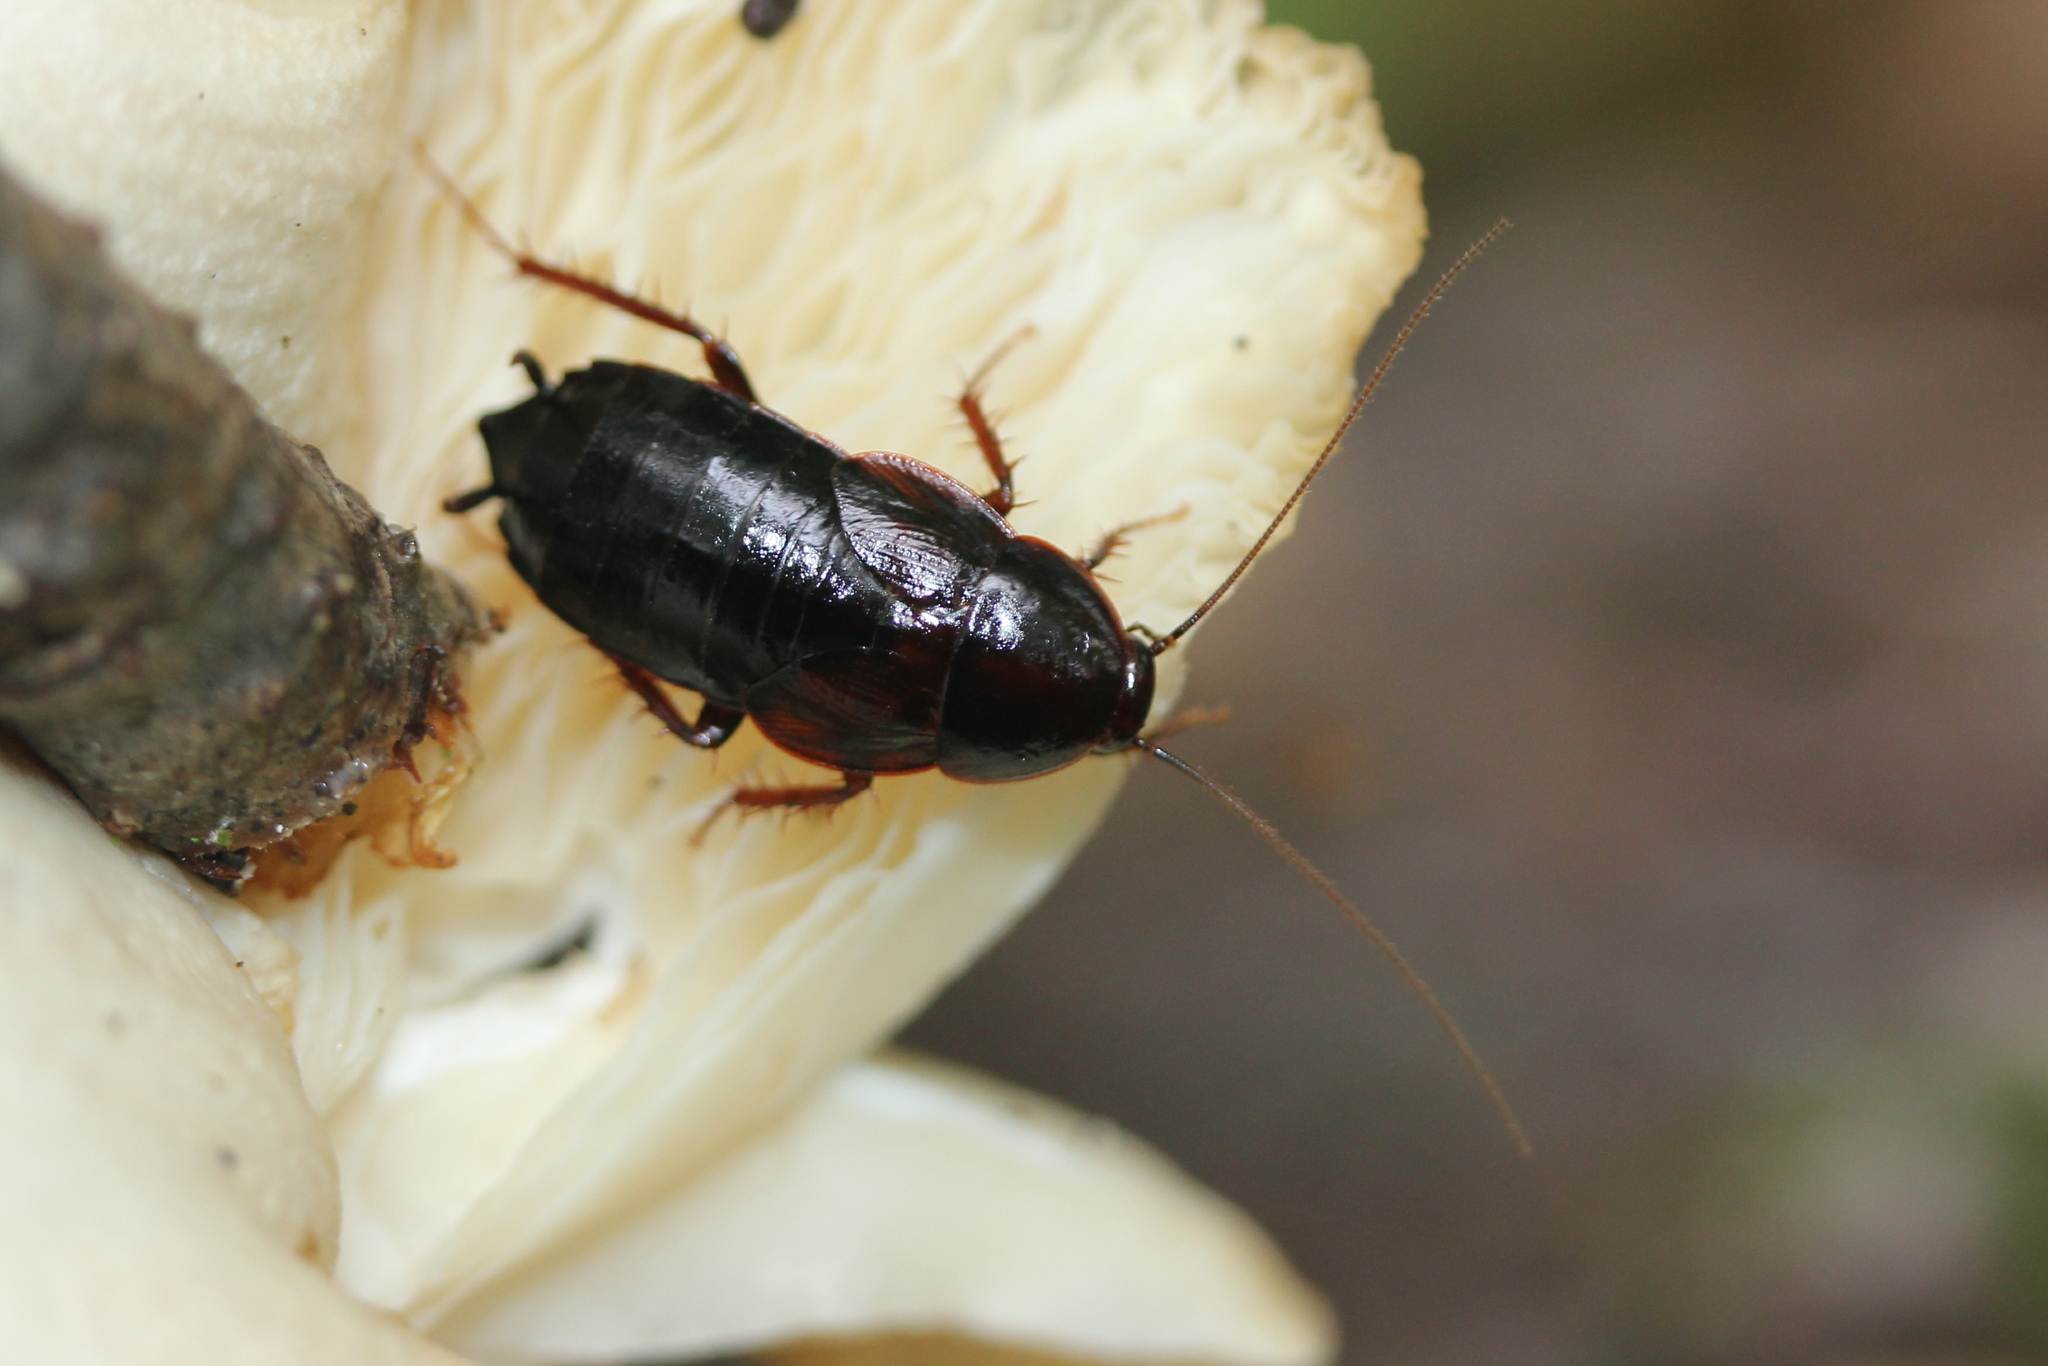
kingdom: Animalia
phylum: Arthropoda
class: Insecta
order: Blattodea
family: Ectobiidae
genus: Parcoblatta
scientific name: Parcoblatta uhleriana
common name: Uhler's wood cockroach
